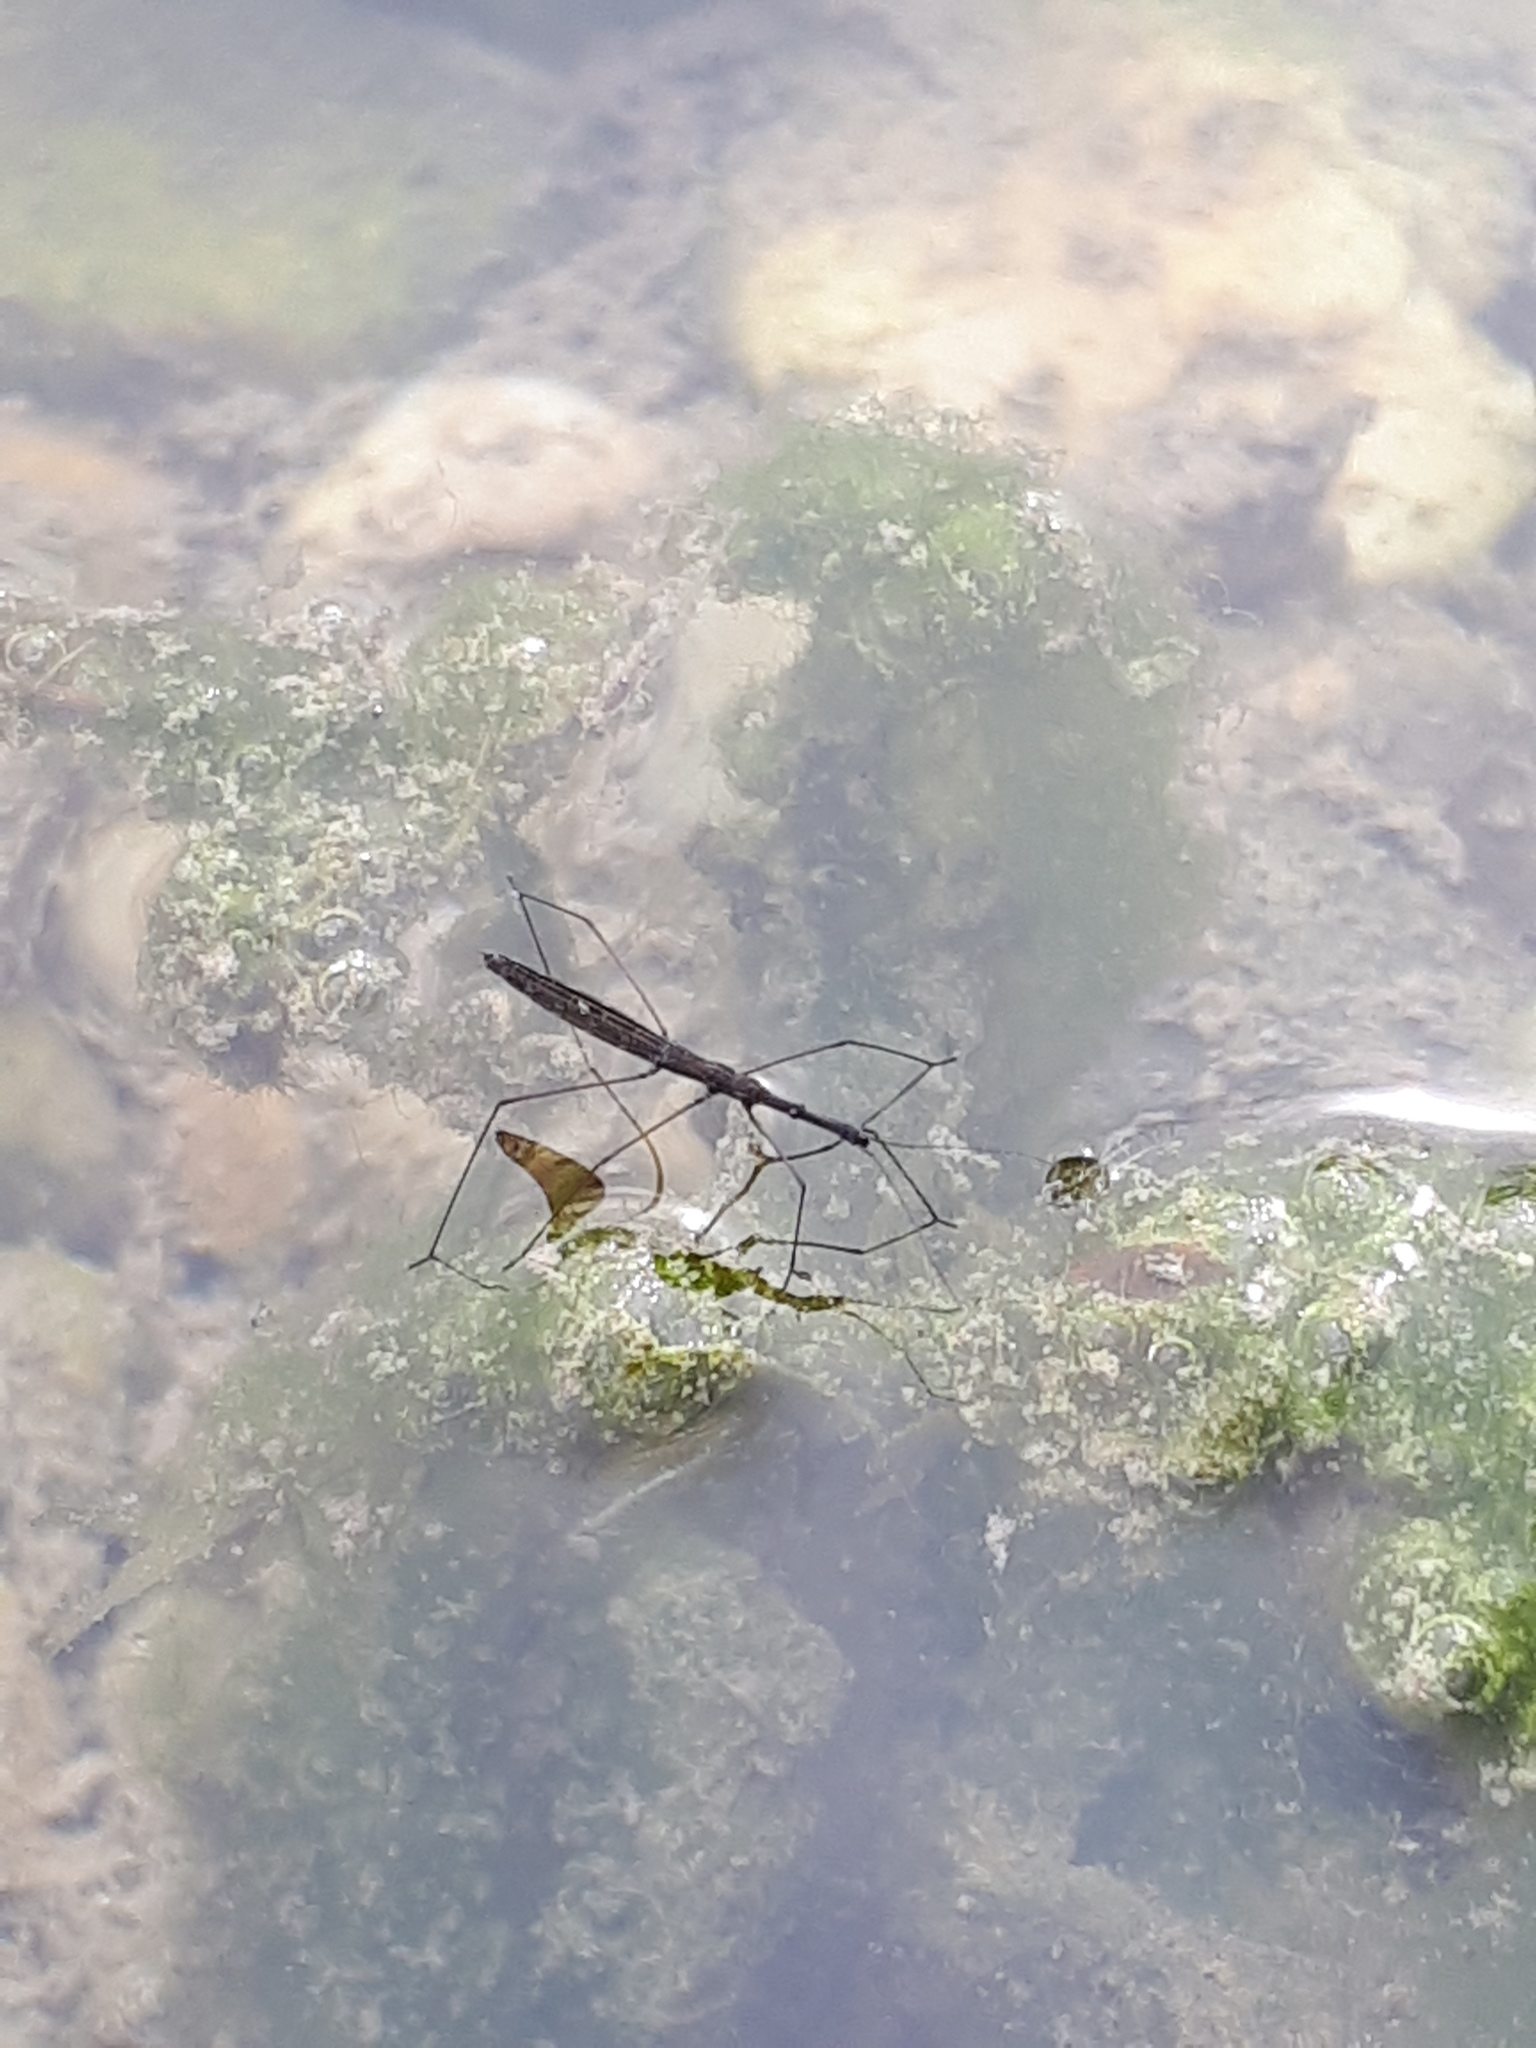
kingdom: Animalia
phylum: Arthropoda
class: Insecta
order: Hemiptera
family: Hydrometridae
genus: Hydrometra
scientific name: Hydrometra stagnorum
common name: Water measurer
